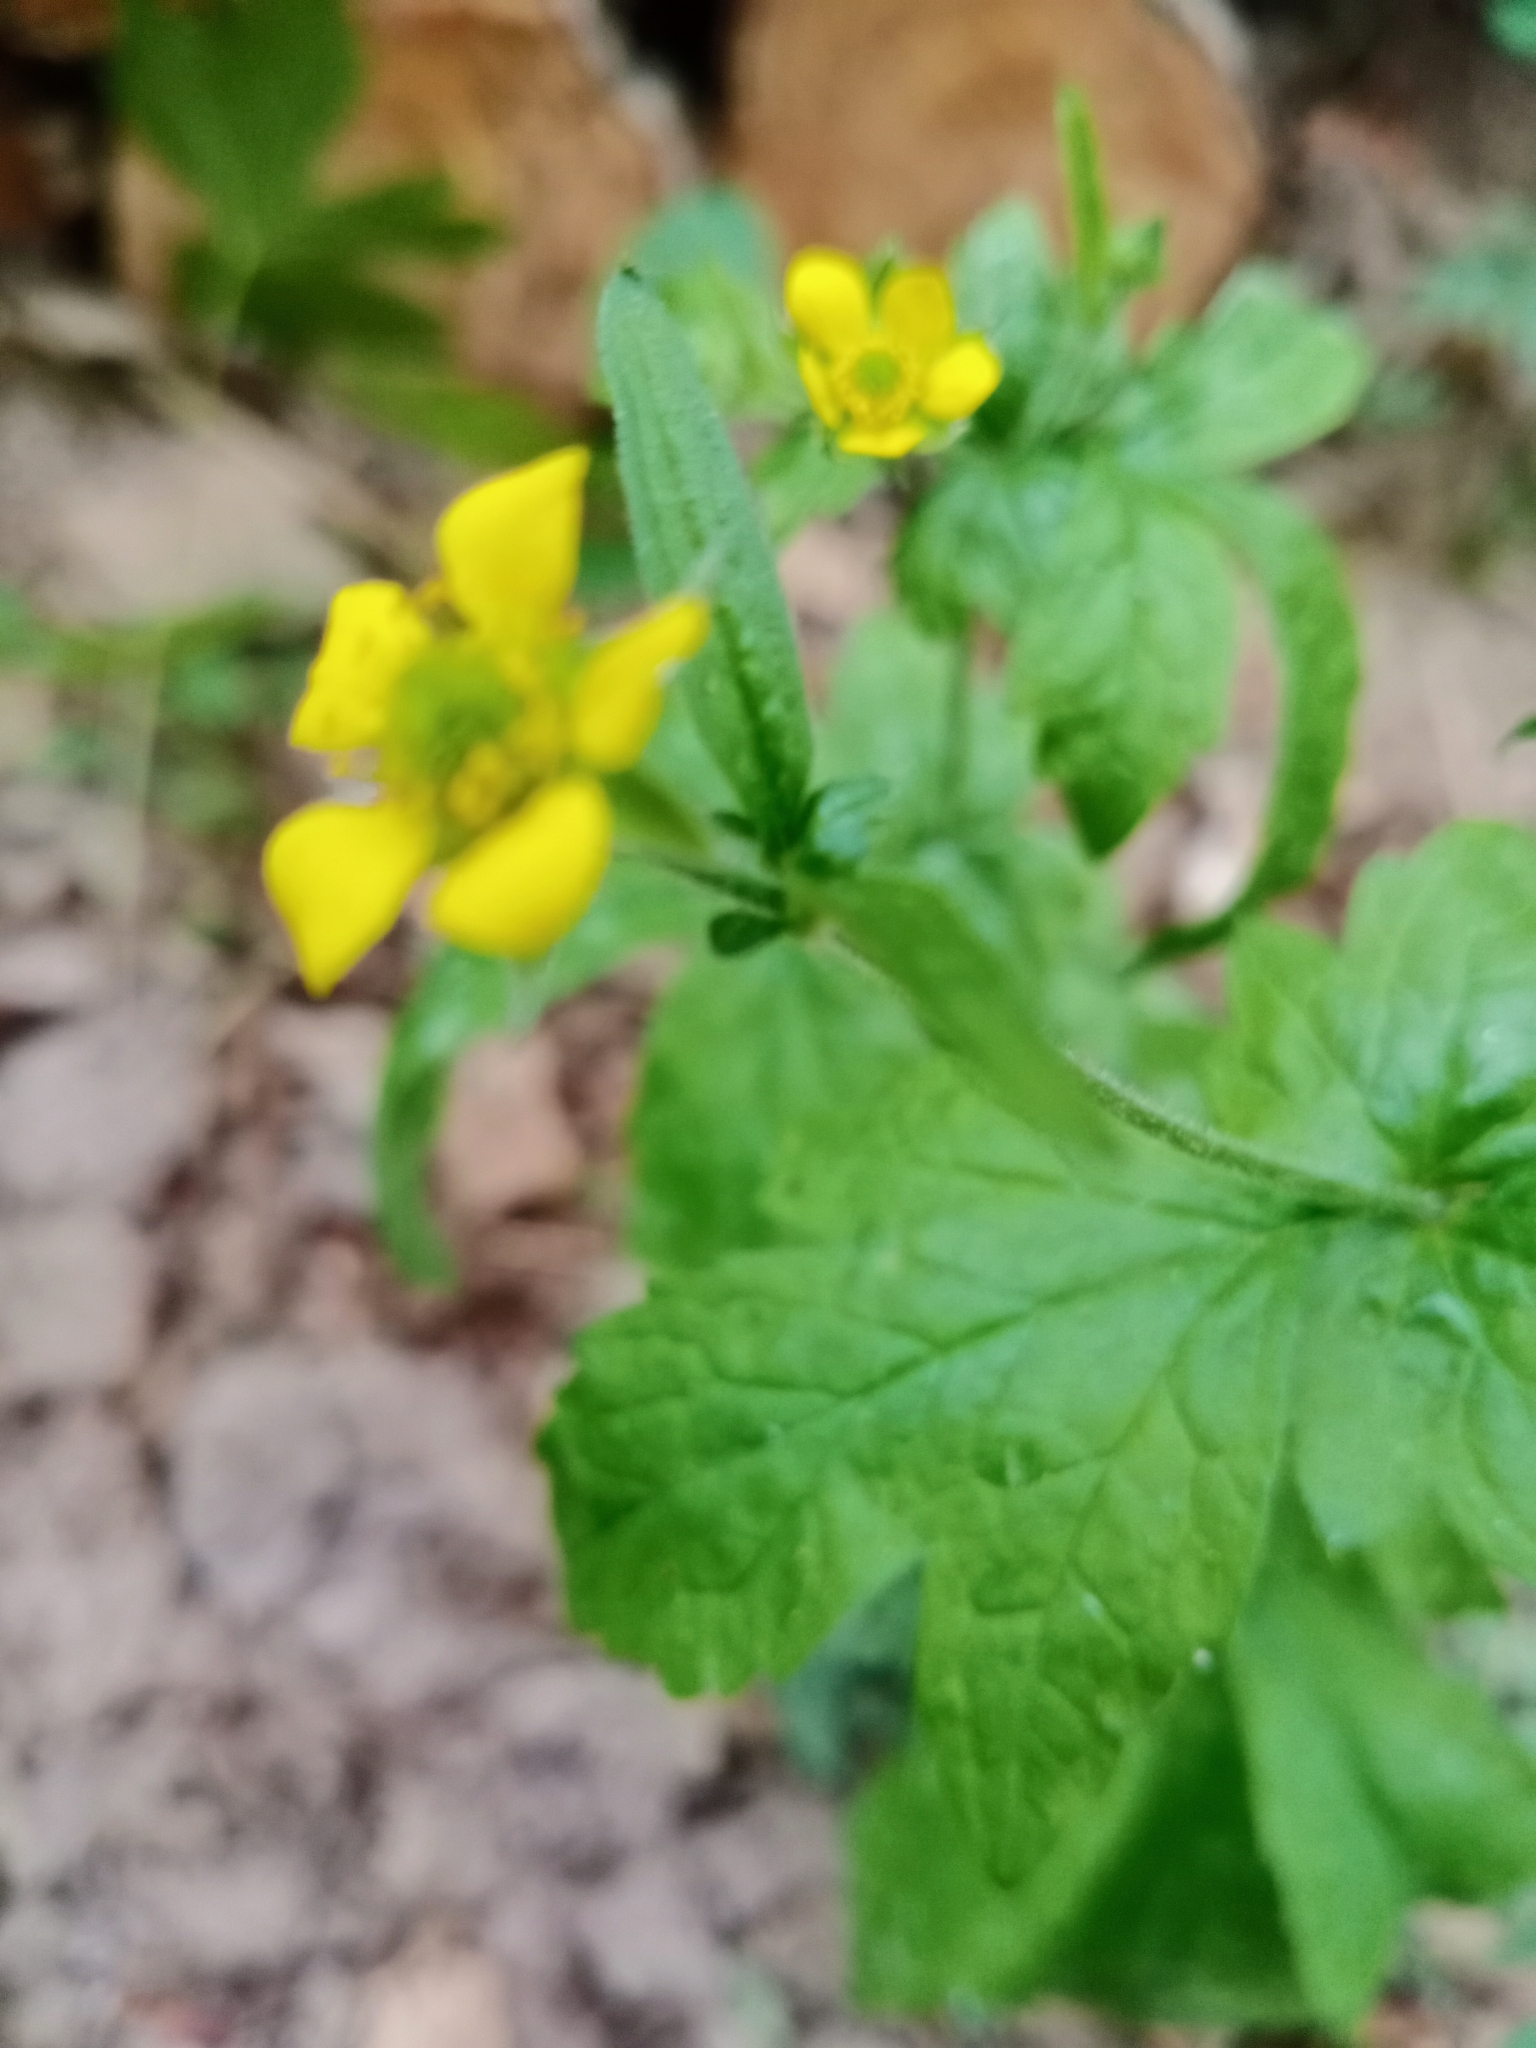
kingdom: Plantae
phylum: Tracheophyta
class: Magnoliopsida
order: Rosales
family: Rosaceae
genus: Geum
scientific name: Geum urbanum
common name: Wood avens
